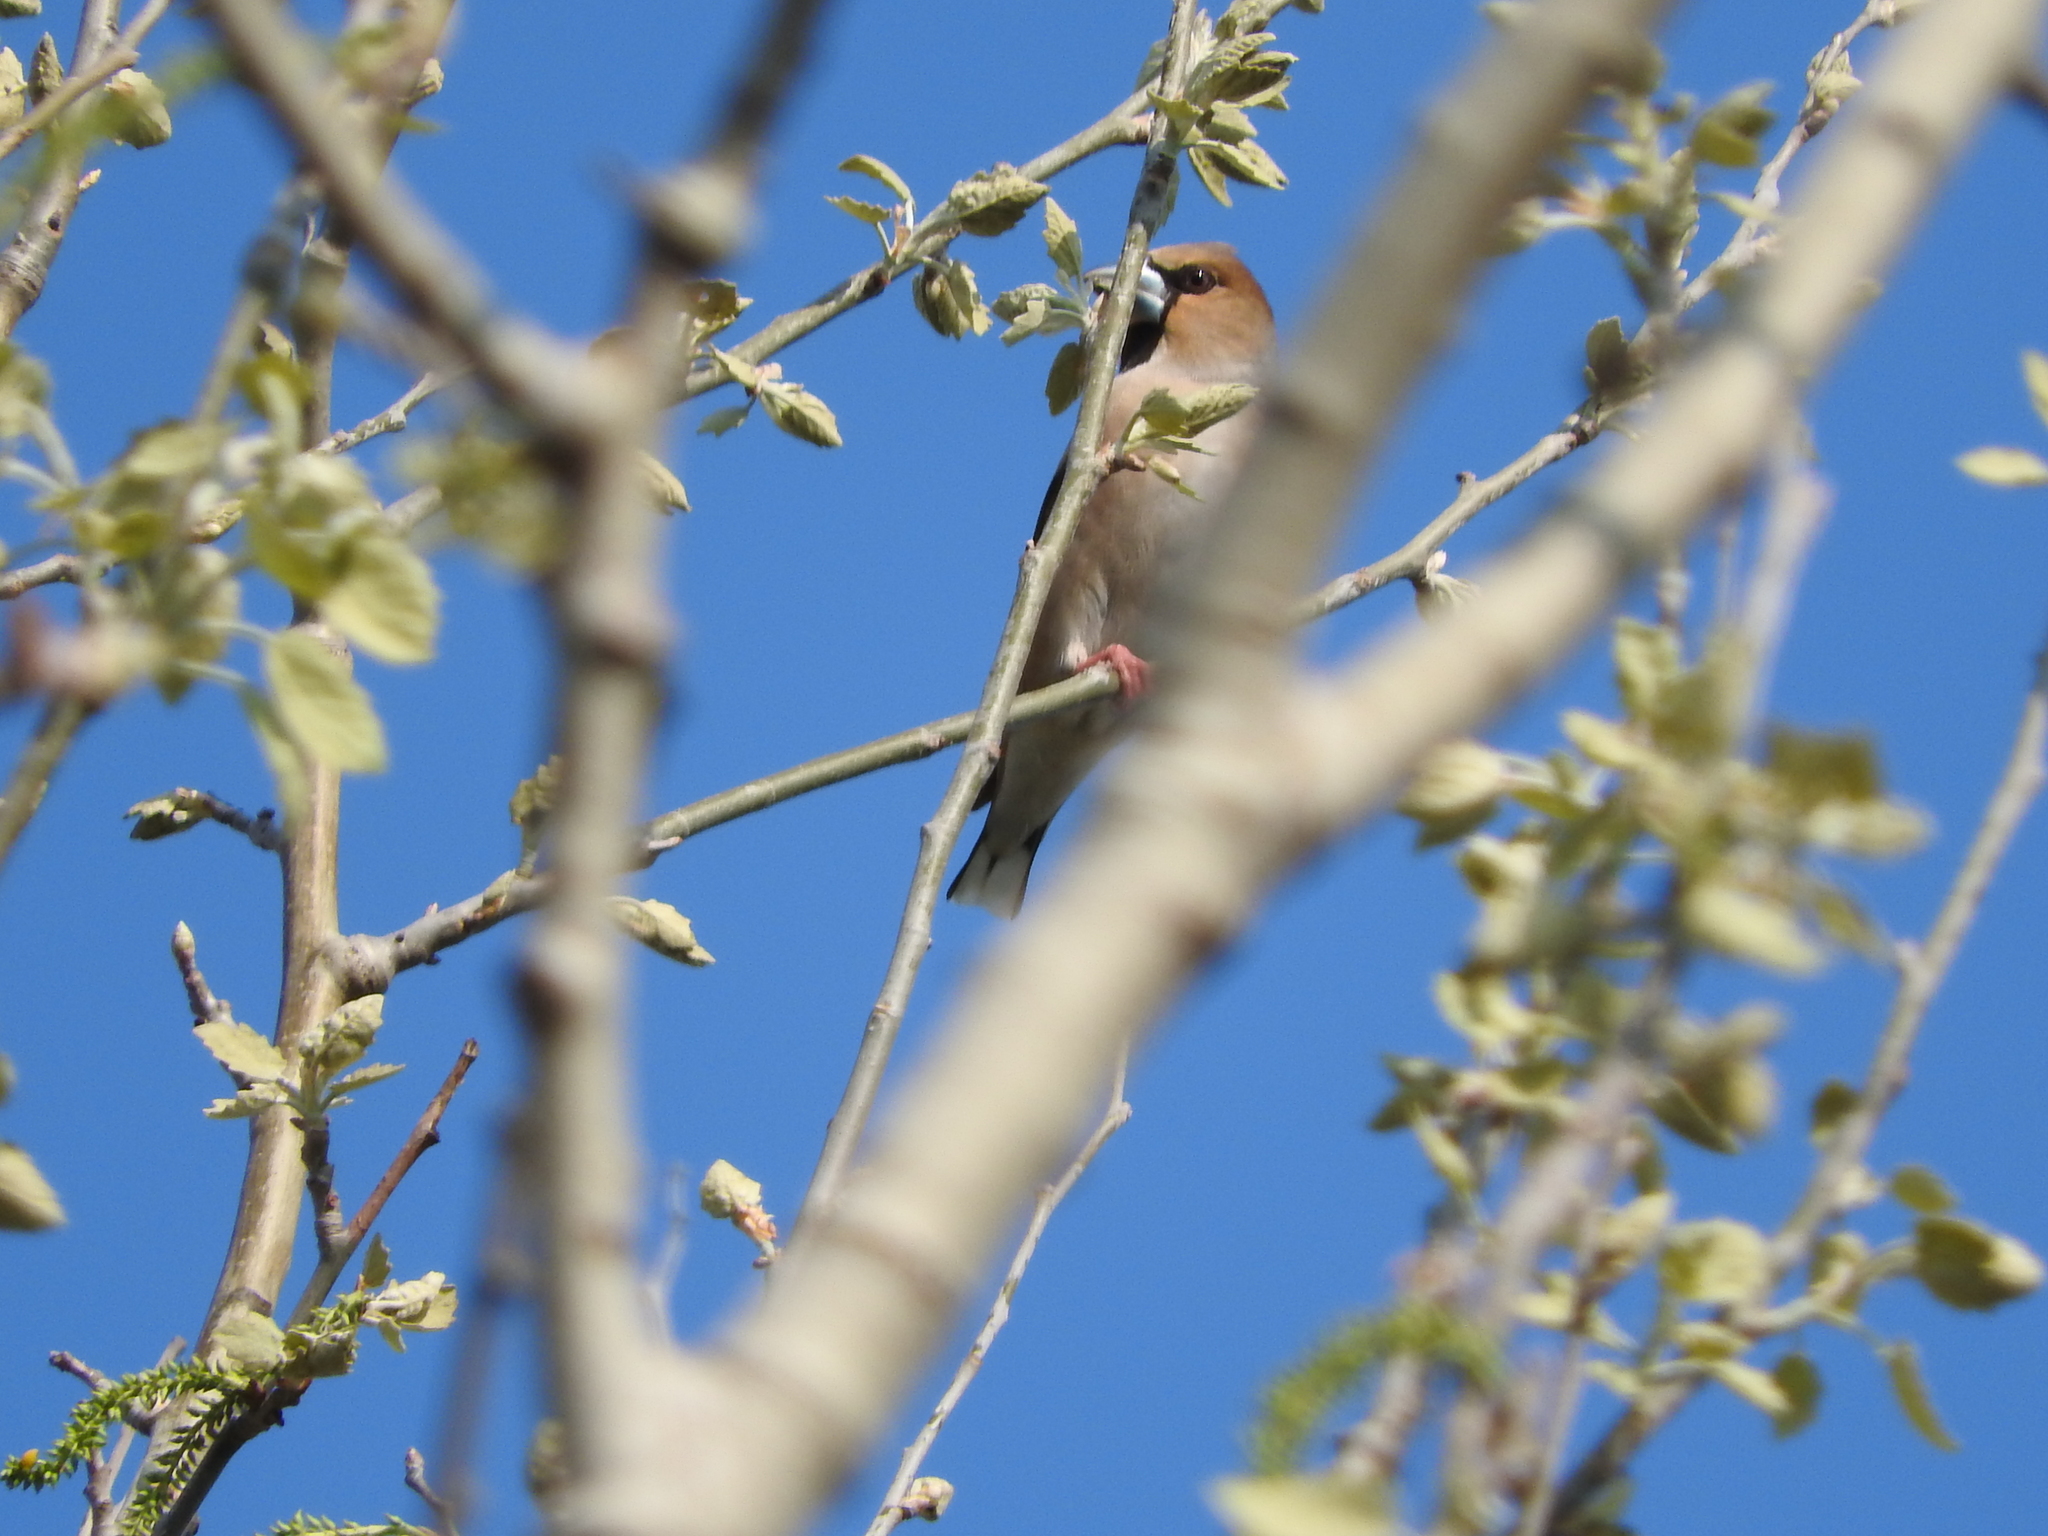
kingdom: Animalia
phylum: Chordata
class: Aves
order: Passeriformes
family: Fringillidae
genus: Coccothraustes
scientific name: Coccothraustes coccothraustes
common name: Hawfinch
